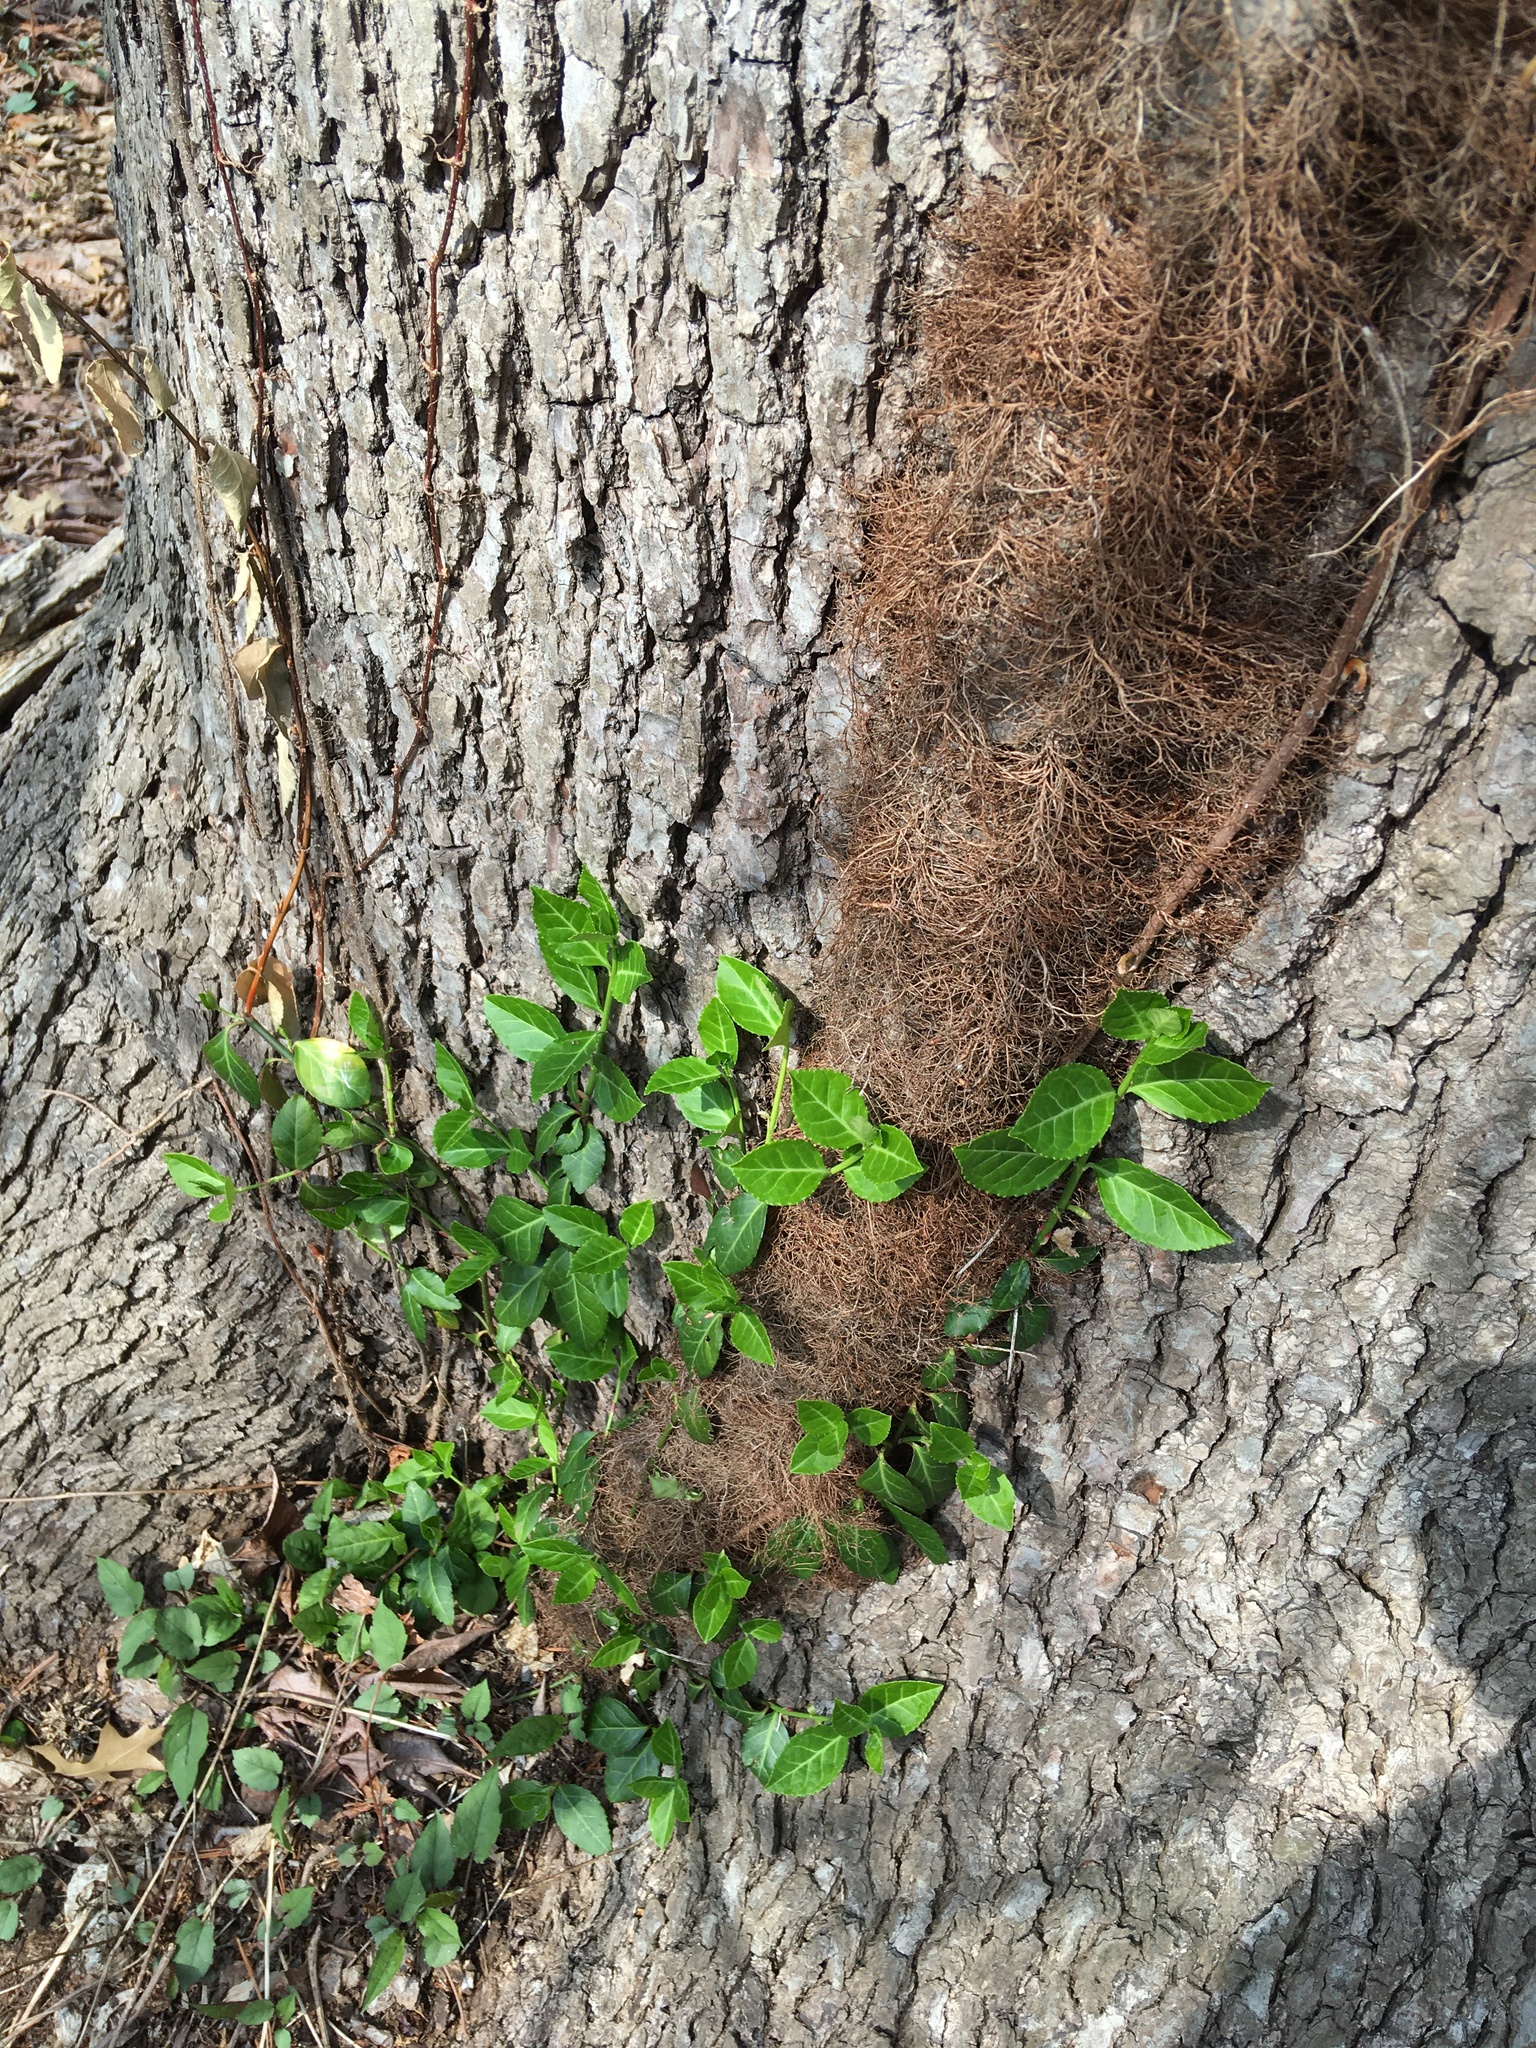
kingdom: Plantae
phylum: Tracheophyta
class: Magnoliopsida
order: Sapindales
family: Anacardiaceae
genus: Toxicodendron
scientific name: Toxicodendron radicans
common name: Poison ivy
